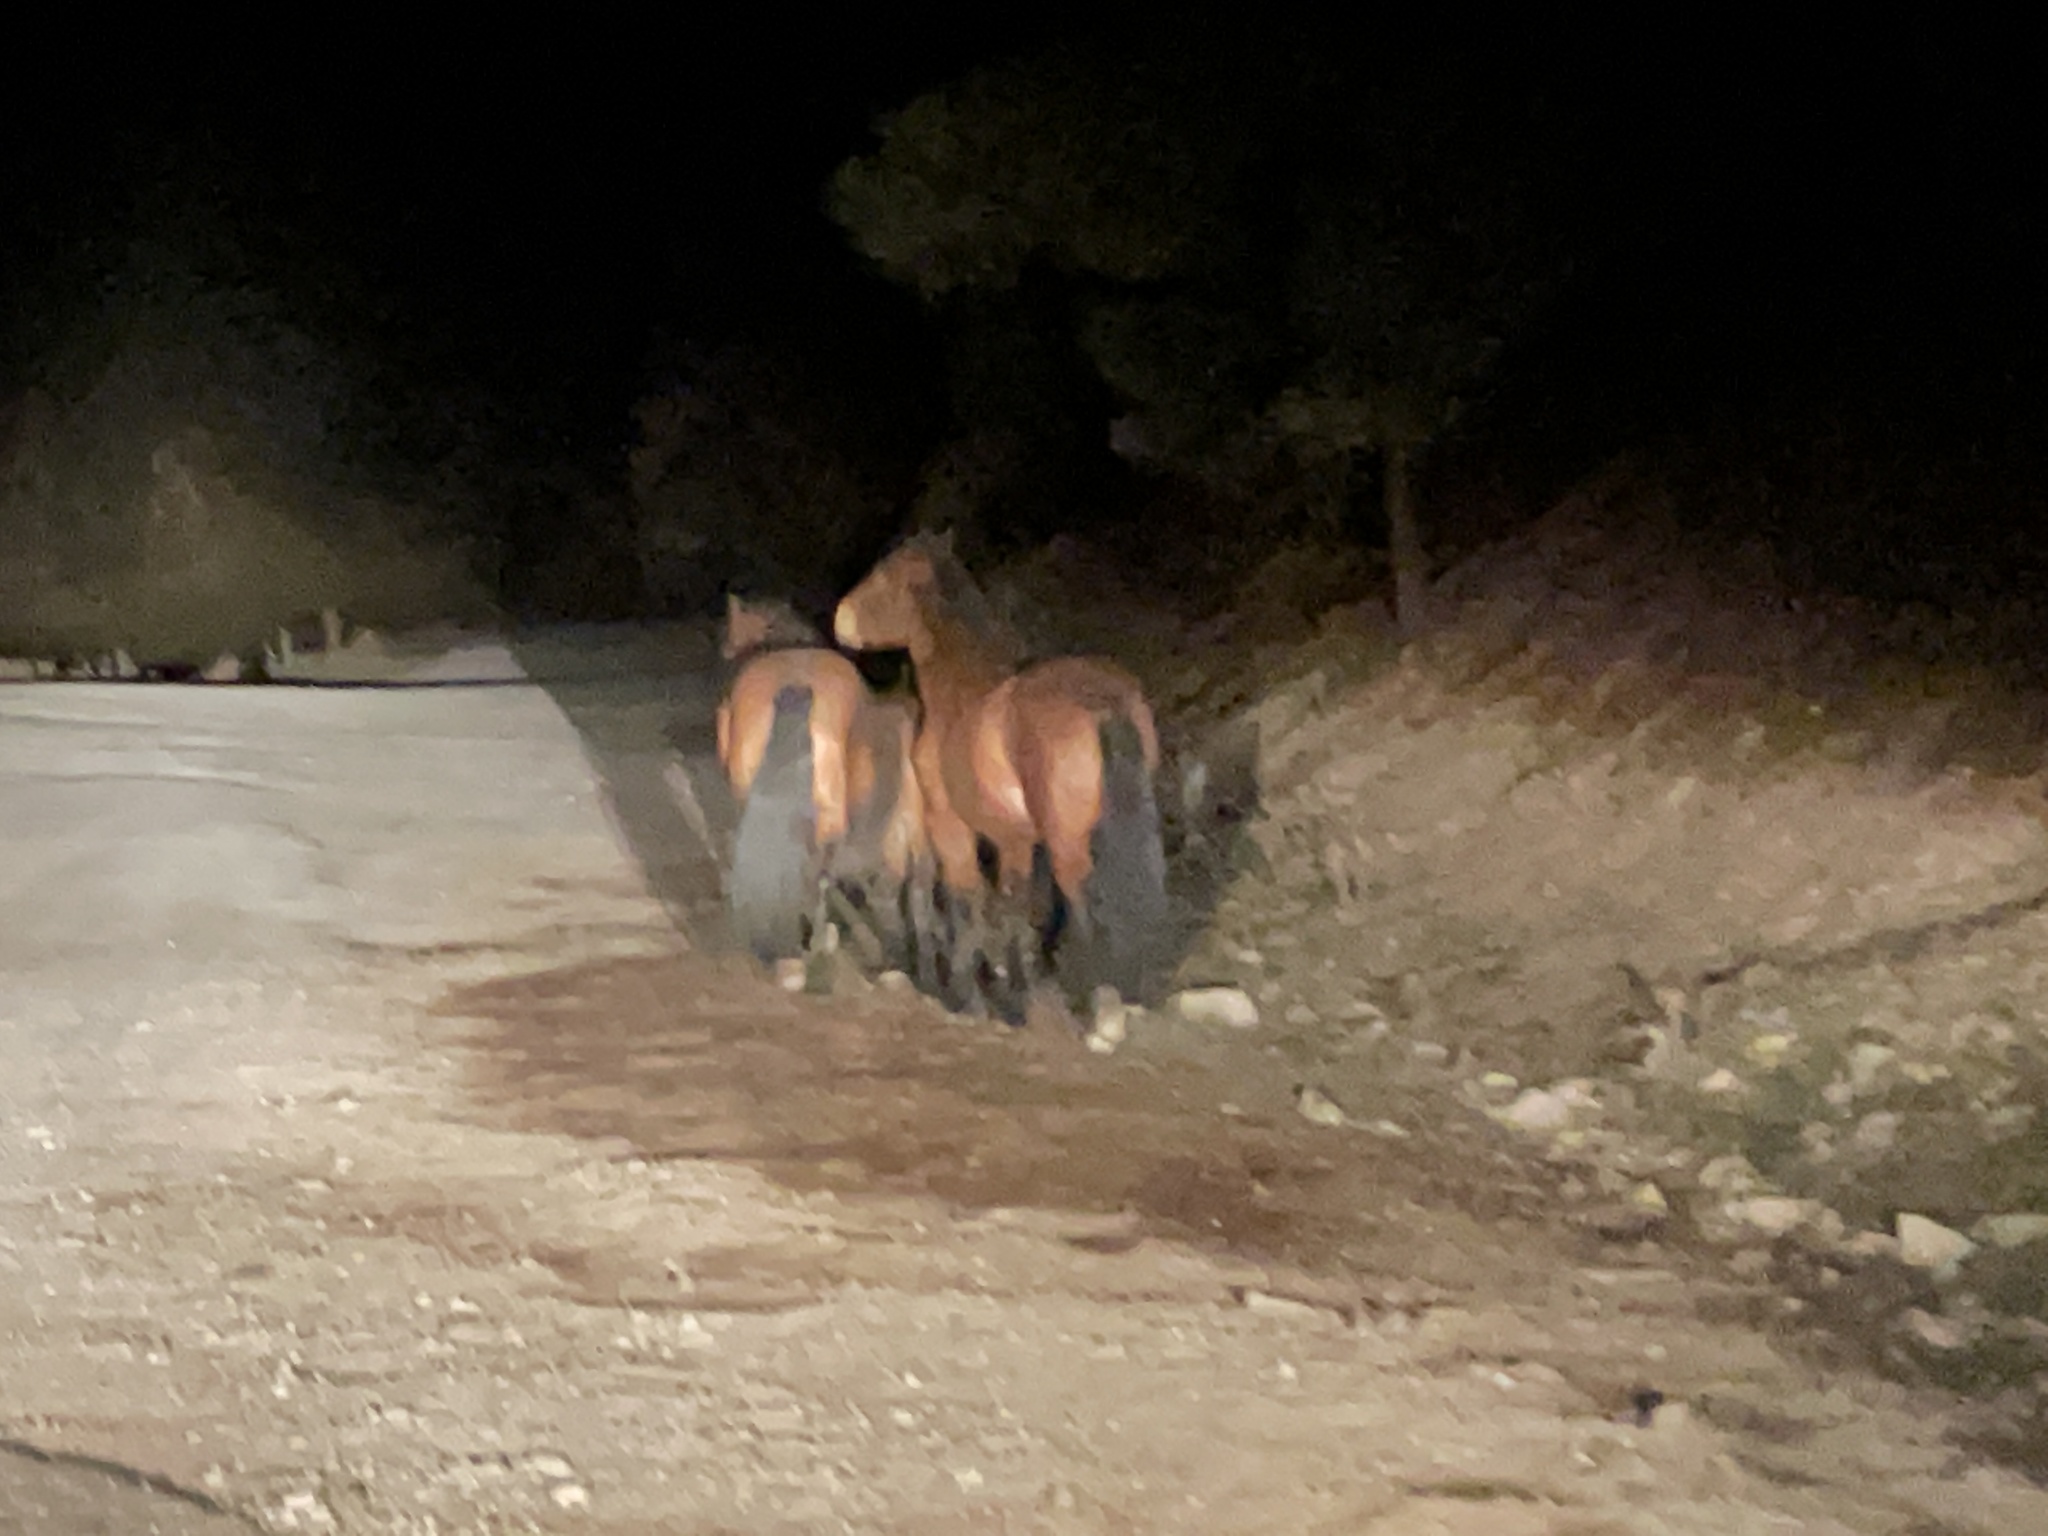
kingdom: Animalia
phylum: Chordata
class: Mammalia
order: Perissodactyla
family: Equidae
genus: Equus
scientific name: Equus caballus
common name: Horse
